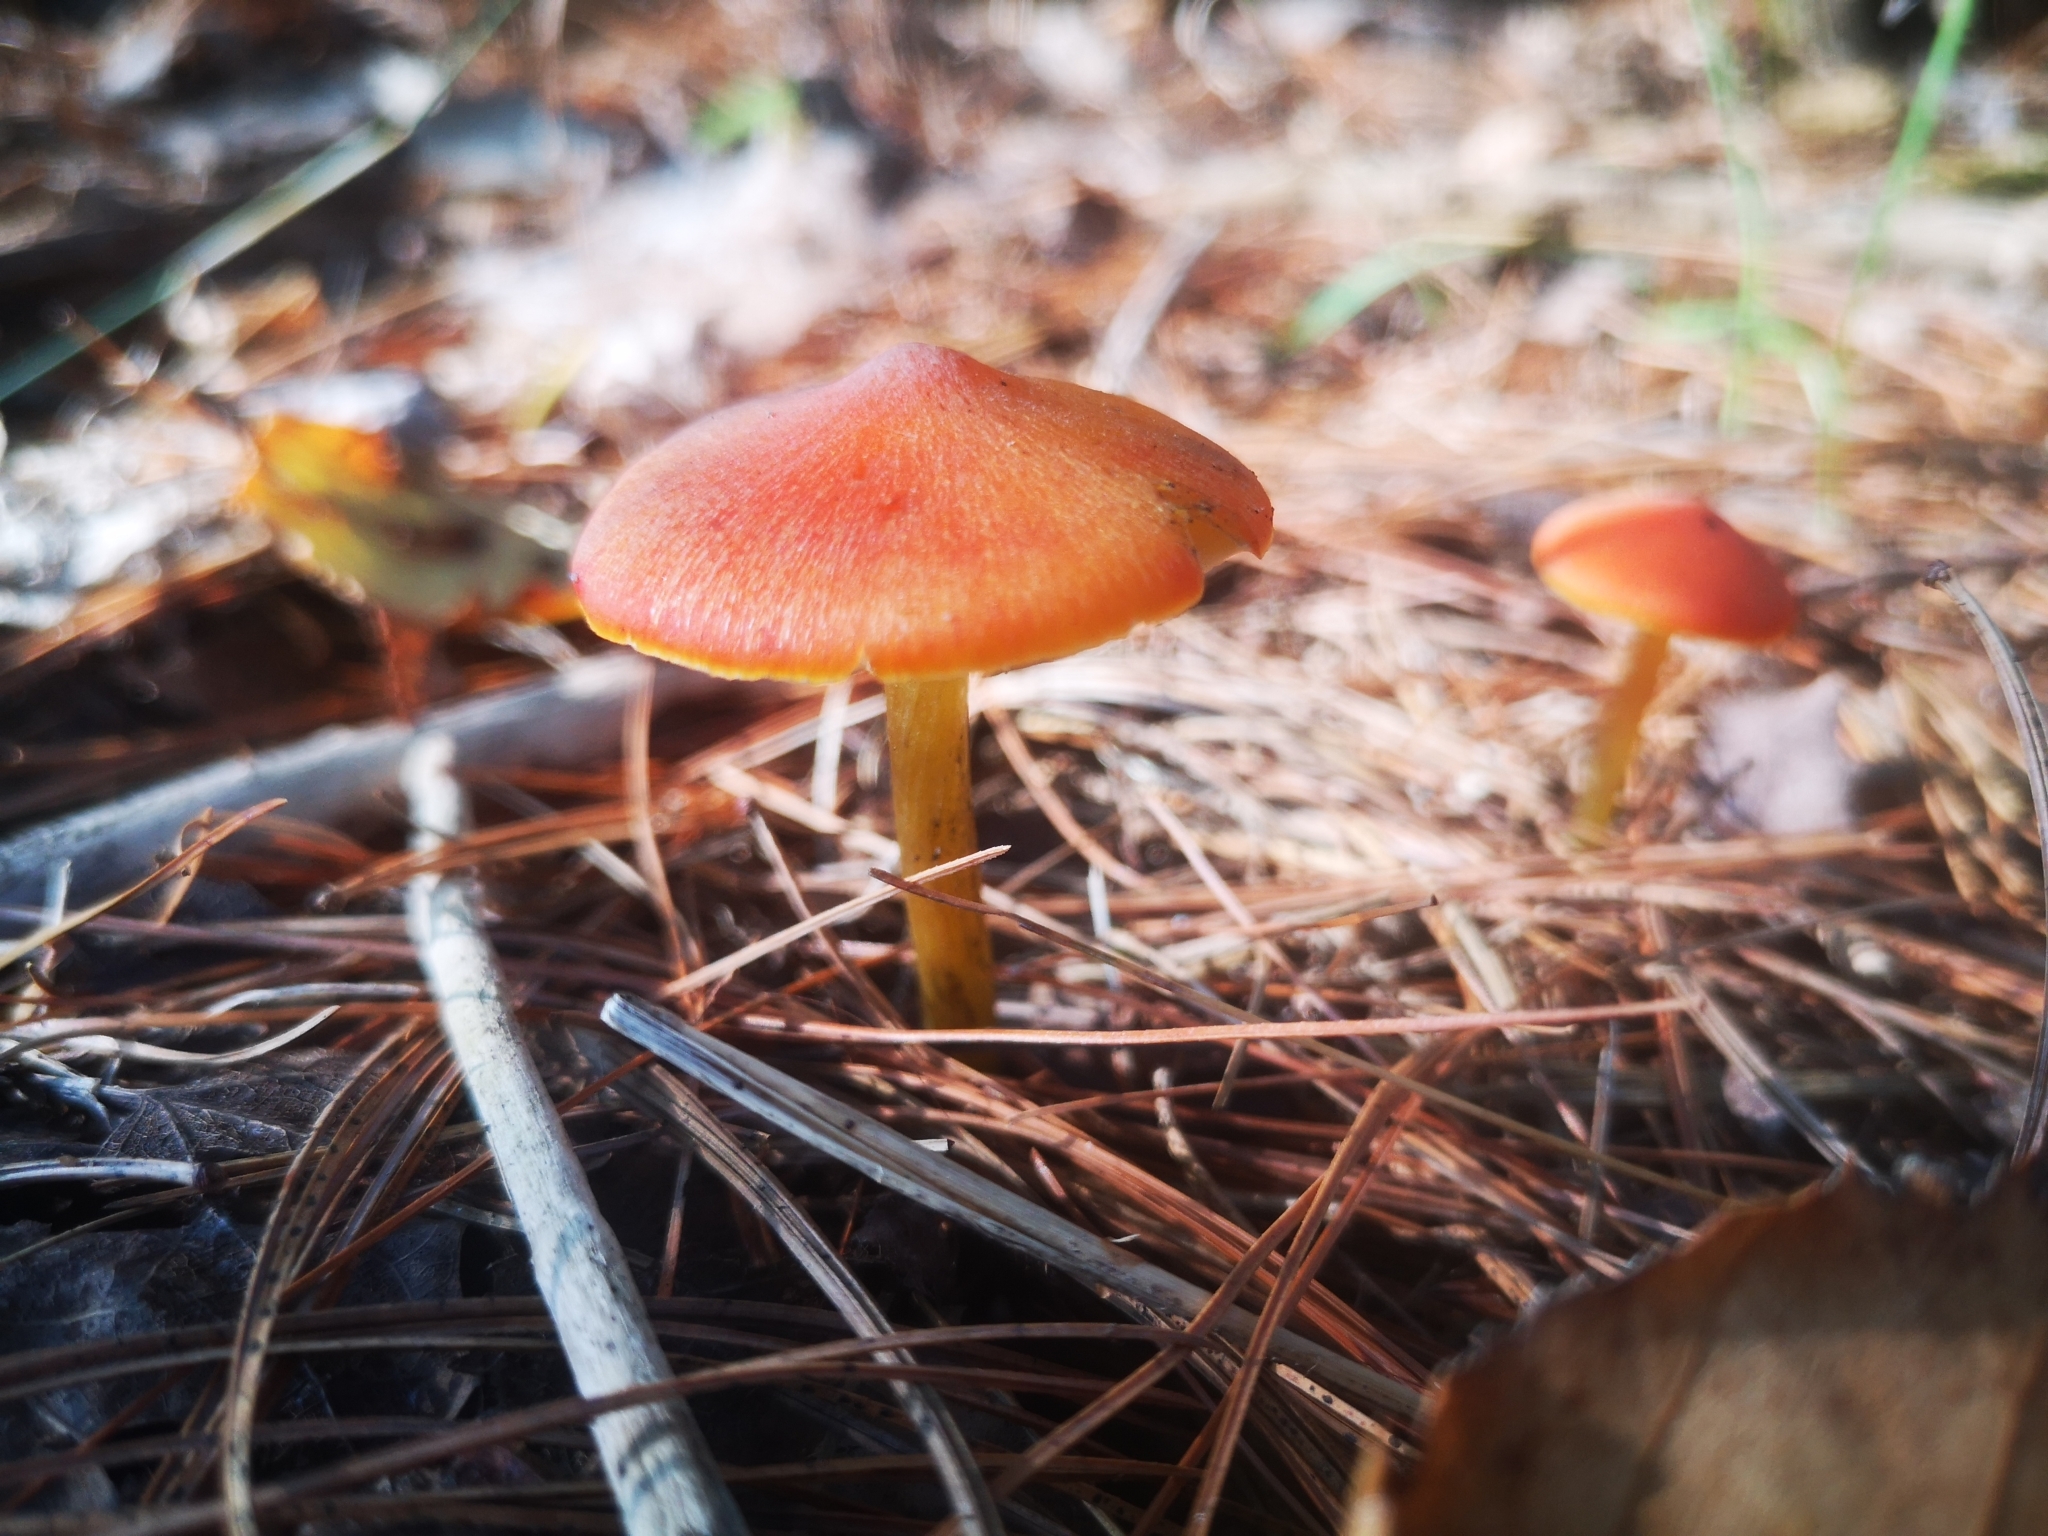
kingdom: Fungi
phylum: Basidiomycota
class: Agaricomycetes
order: Agaricales
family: Hygrophoraceae
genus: Hygrocybe
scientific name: Hygrocybe conica
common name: Blackening wax-cap
